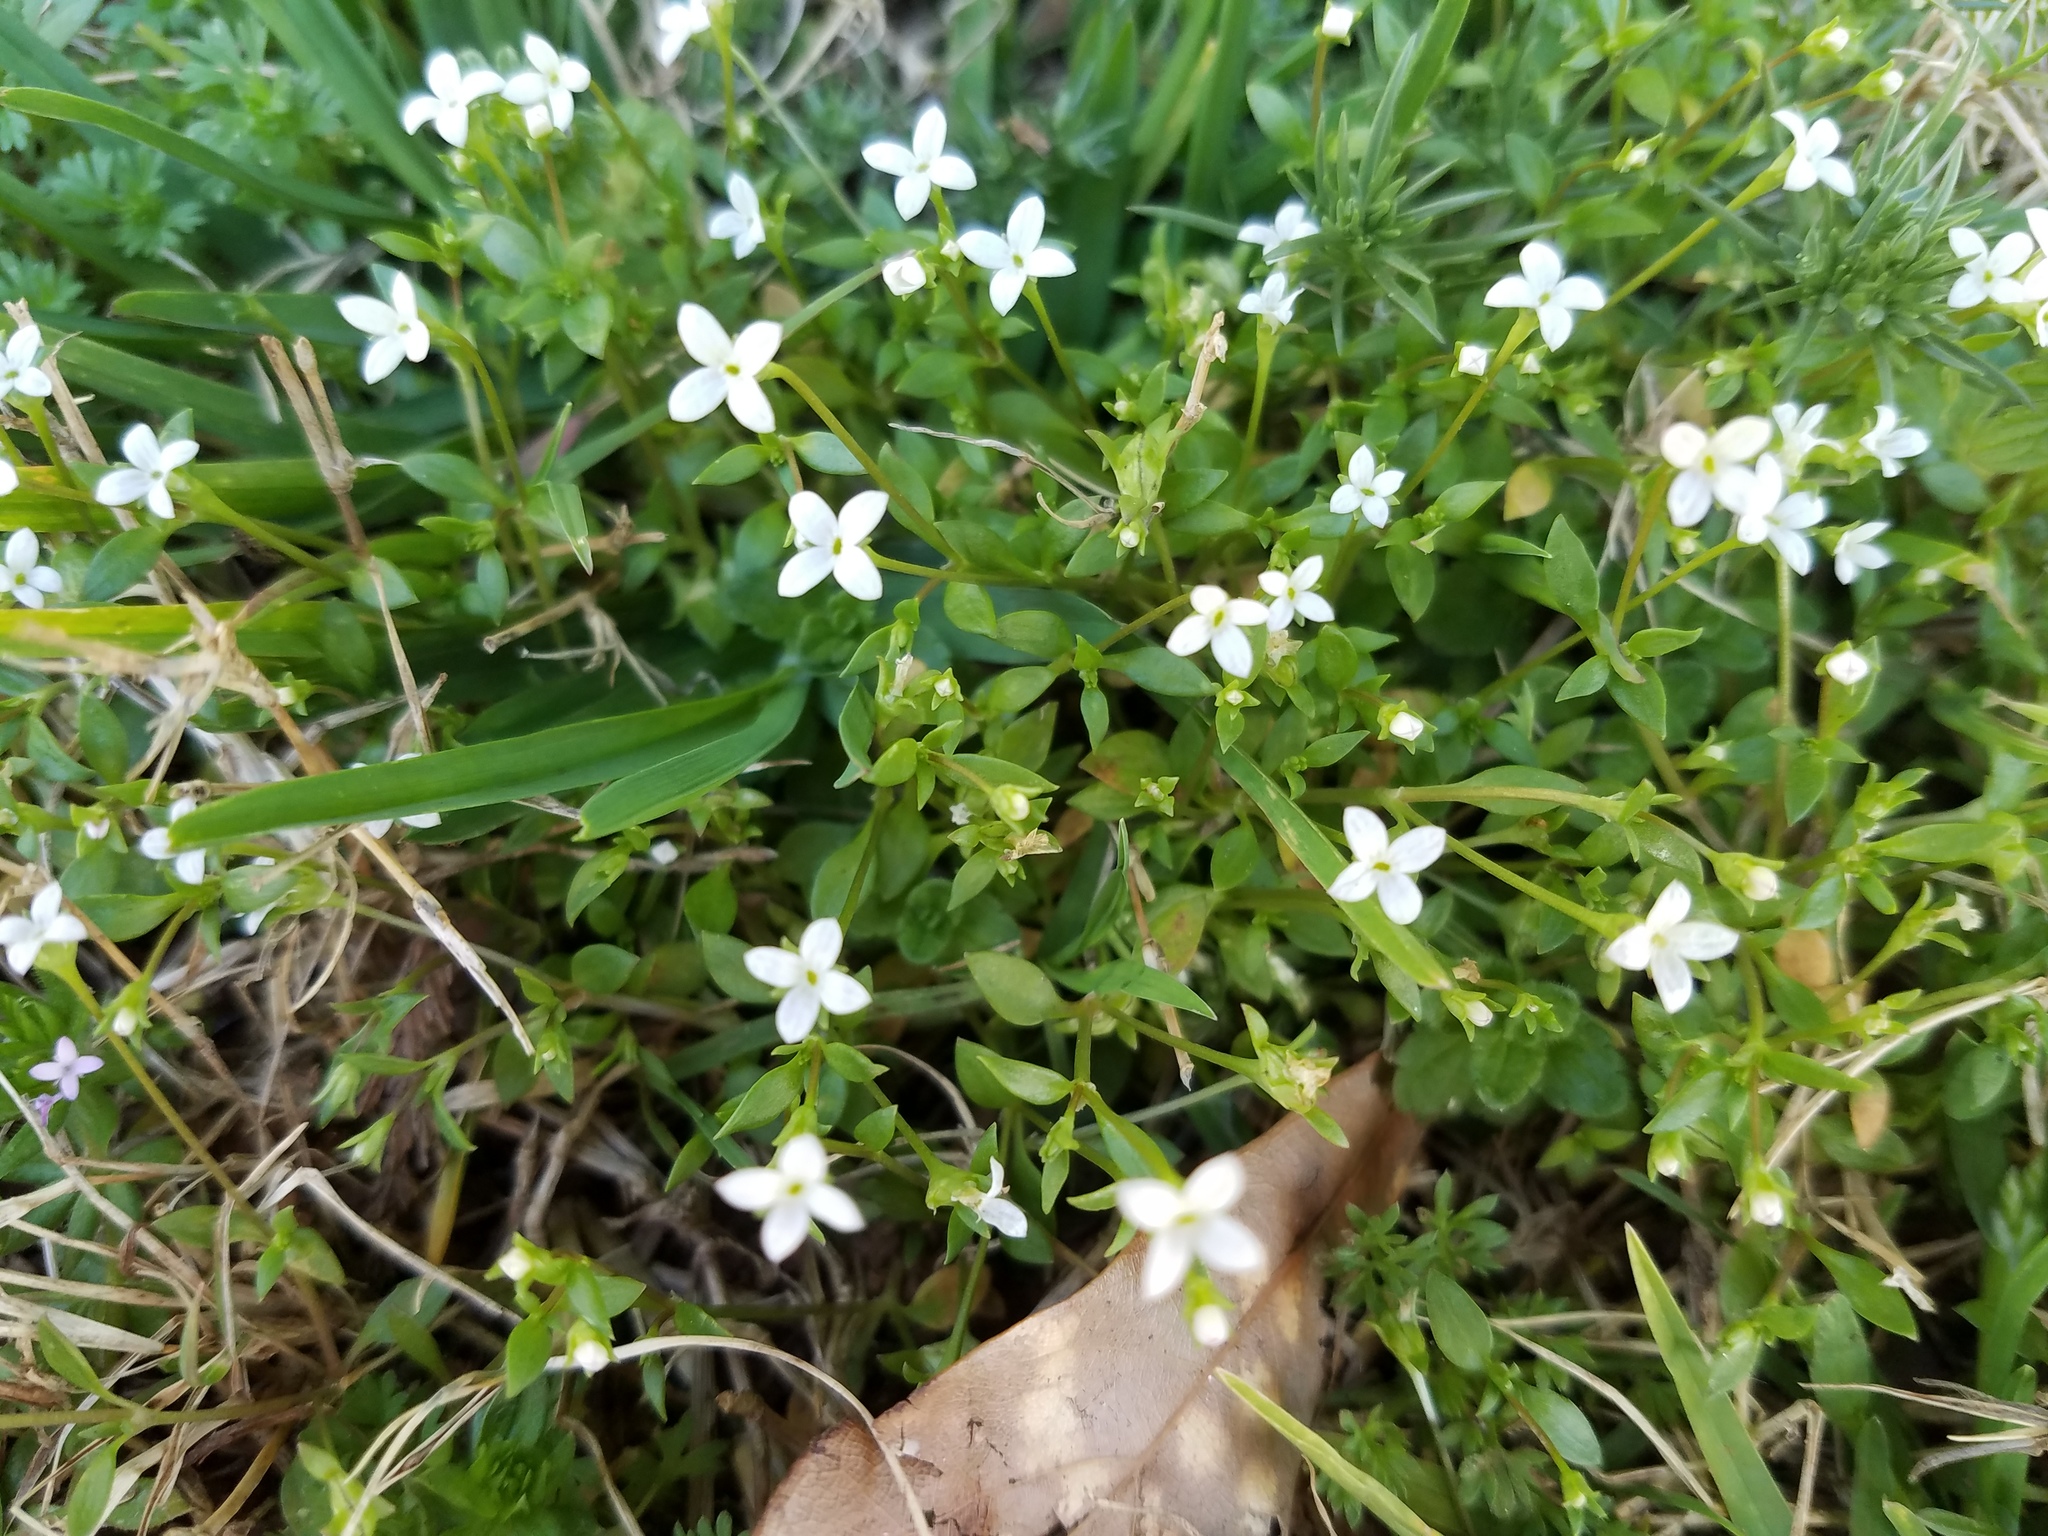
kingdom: Plantae
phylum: Tracheophyta
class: Magnoliopsida
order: Gentianales
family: Rubiaceae
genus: Houstonia
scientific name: Houstonia micrantha
